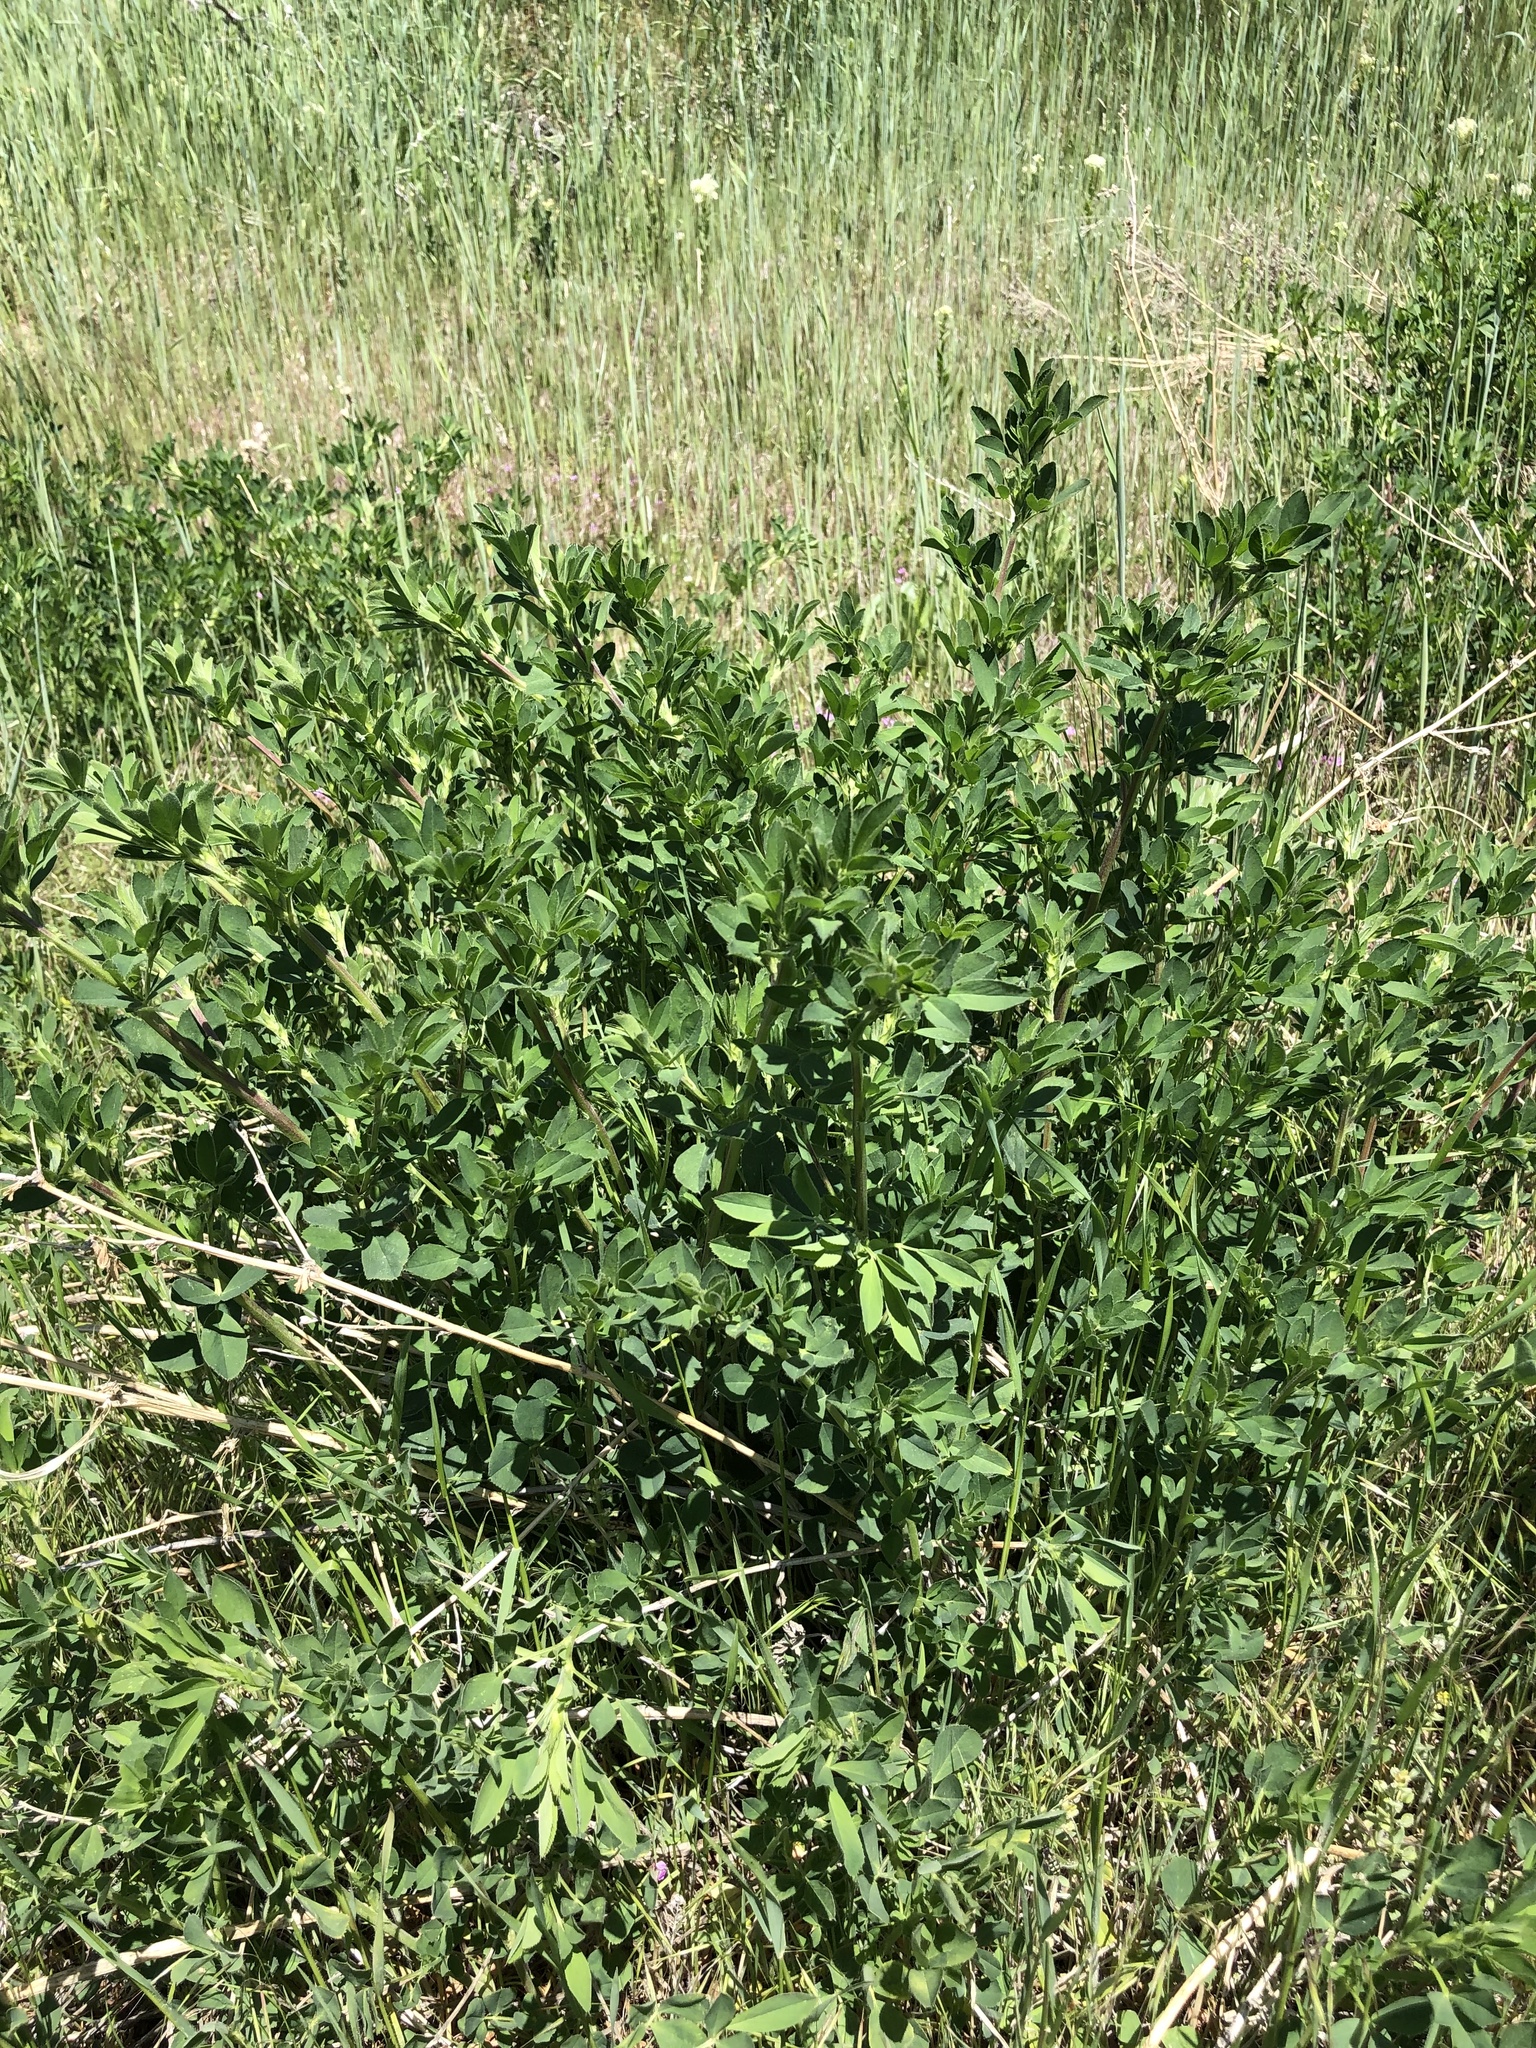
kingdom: Plantae
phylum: Tracheophyta
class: Magnoliopsida
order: Fabales
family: Fabaceae
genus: Medicago
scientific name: Medicago sativa
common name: Alfalfa
